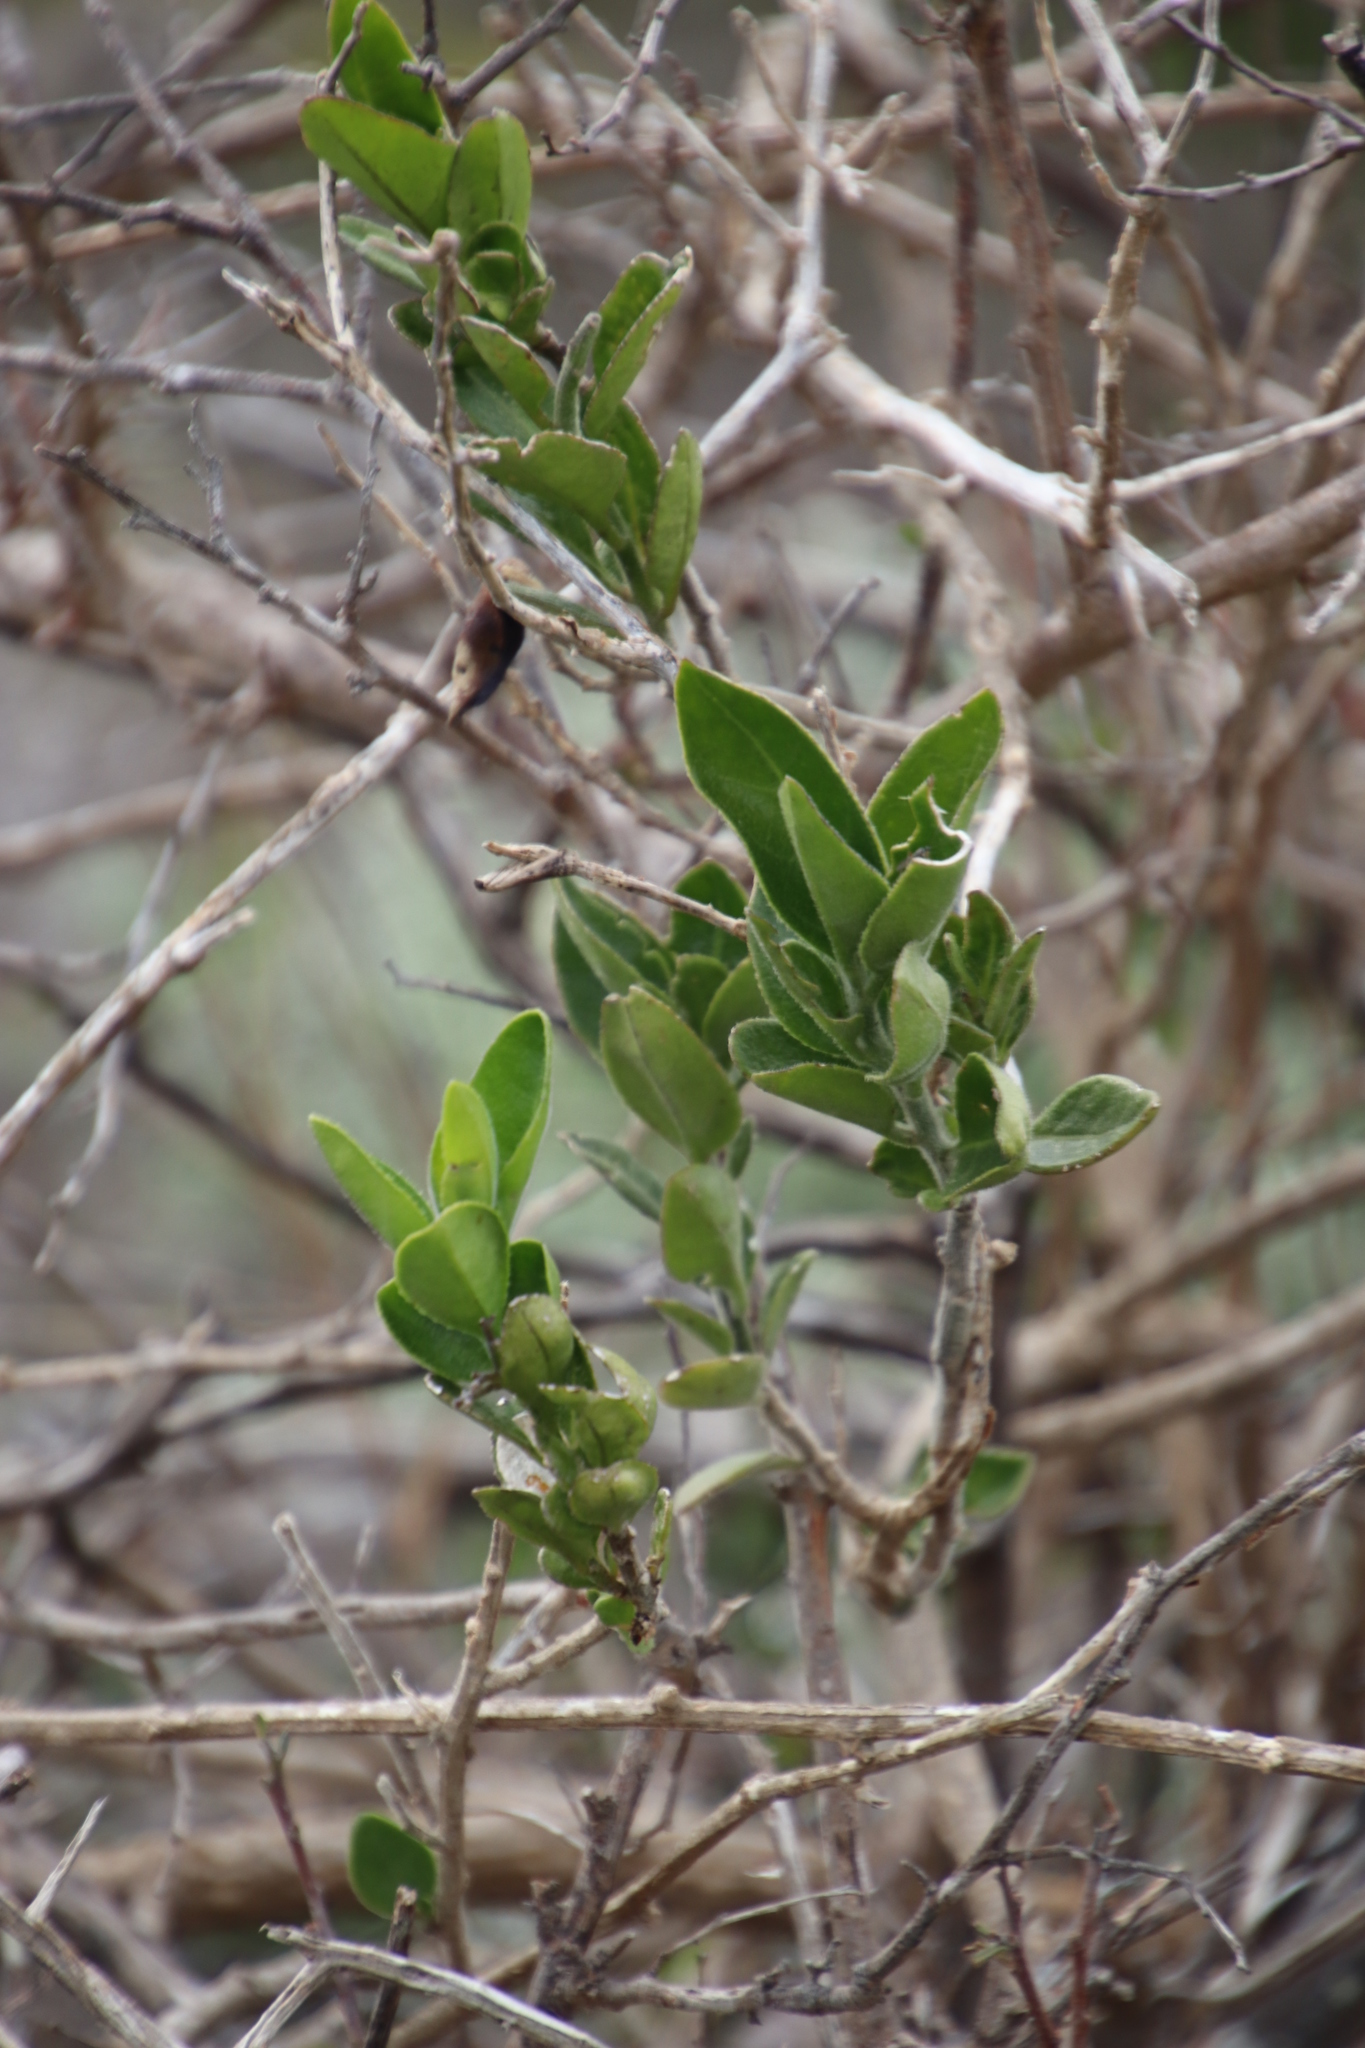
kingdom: Plantae
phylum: Tracheophyta
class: Magnoliopsida
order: Solanales
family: Solanaceae
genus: Solanum
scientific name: Solanum africanum
